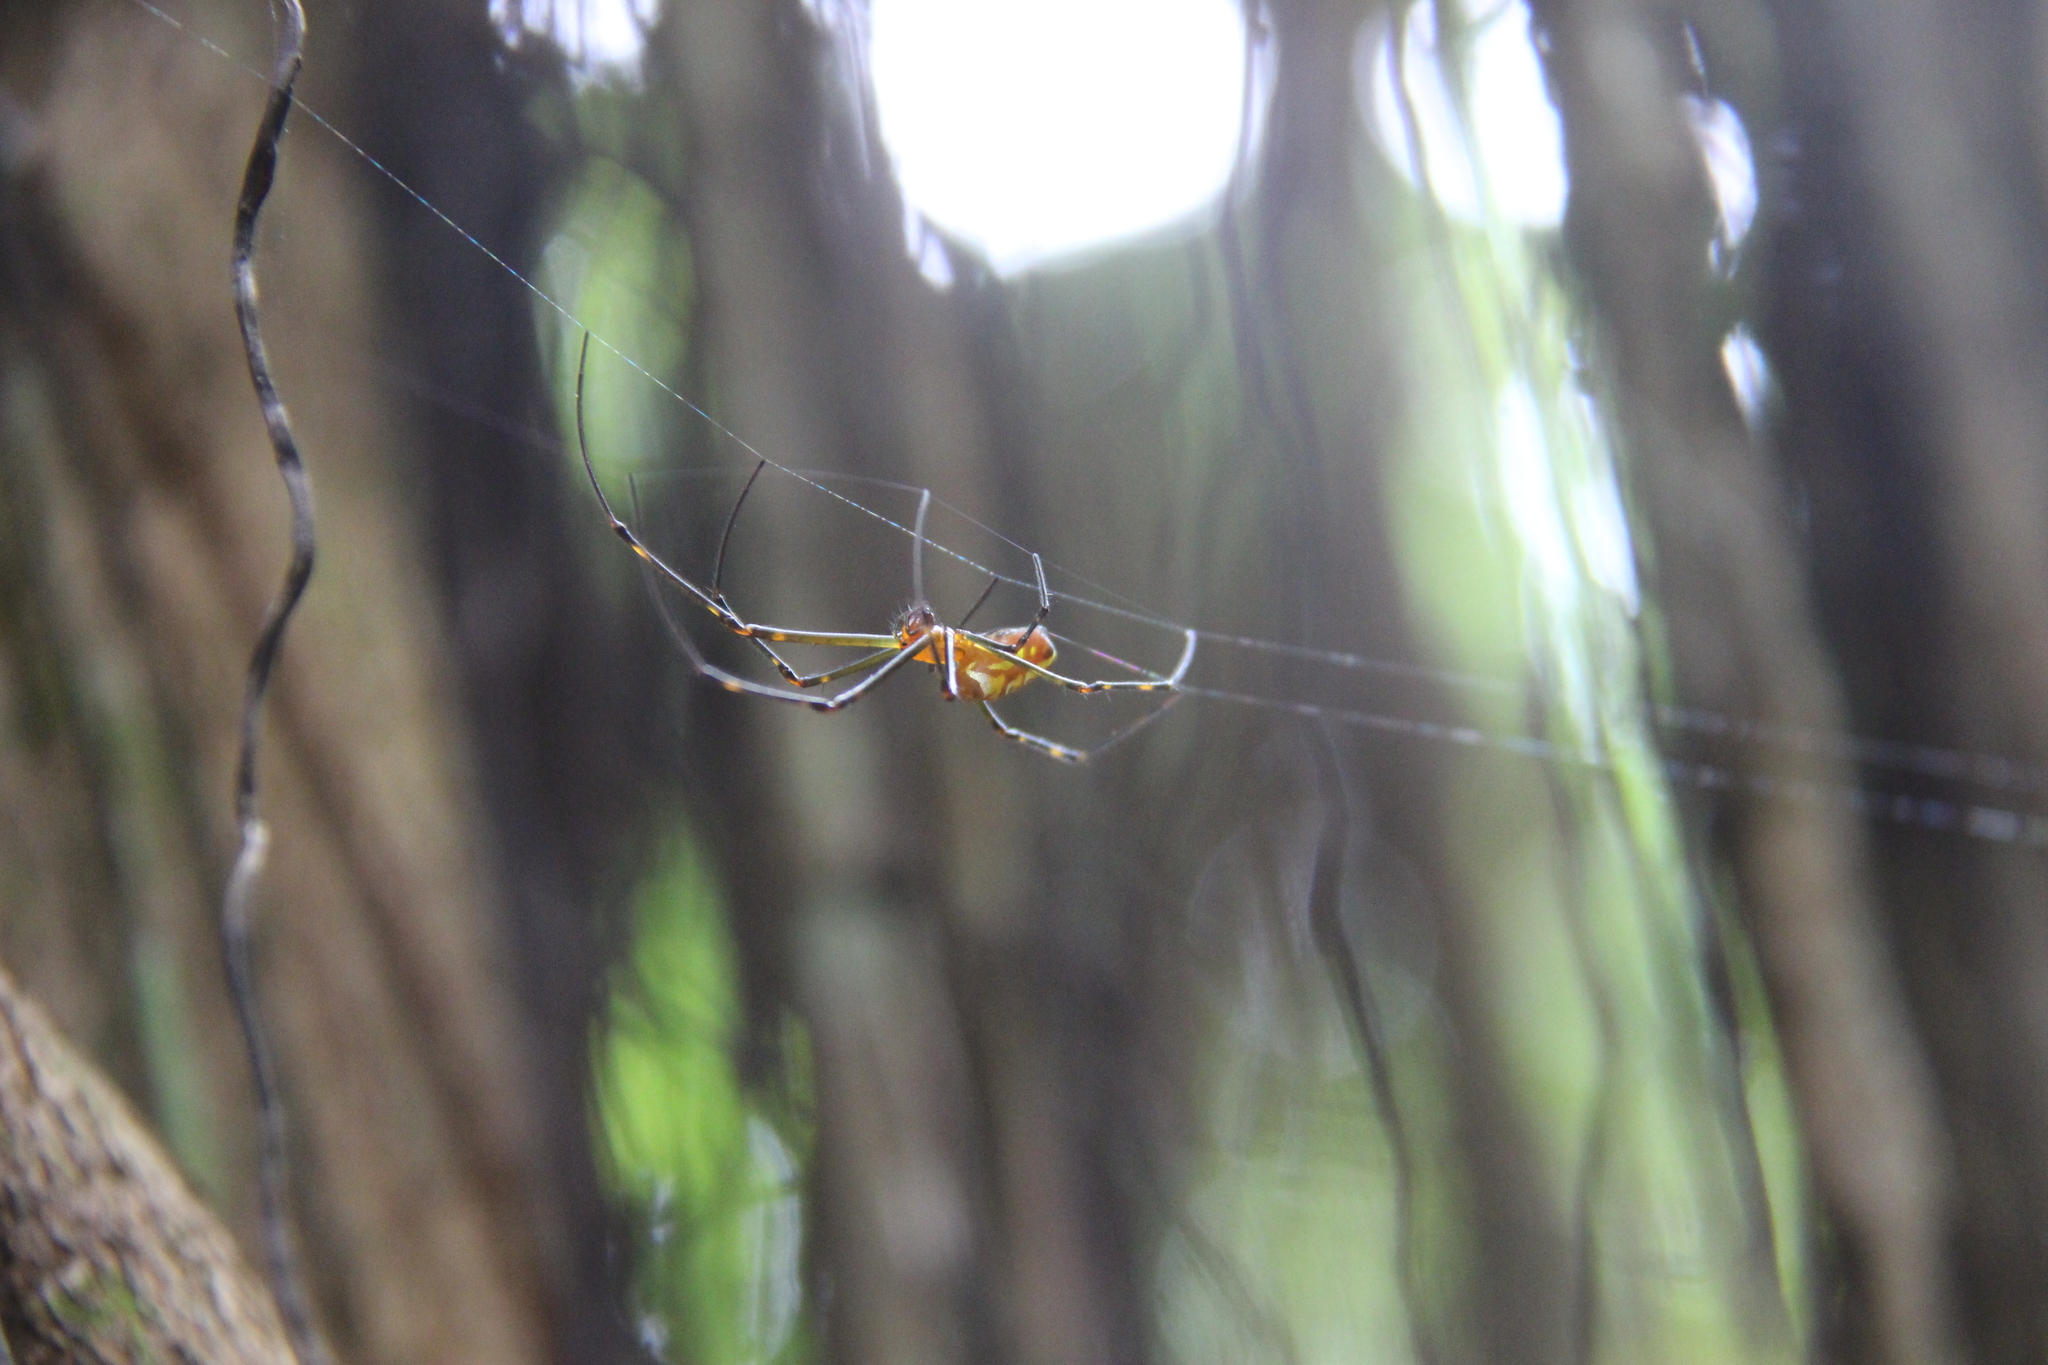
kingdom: Animalia
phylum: Arthropoda
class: Arachnida
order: Araneae
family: Tetragnathidae
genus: Leucauge
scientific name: Leucauge granulata
